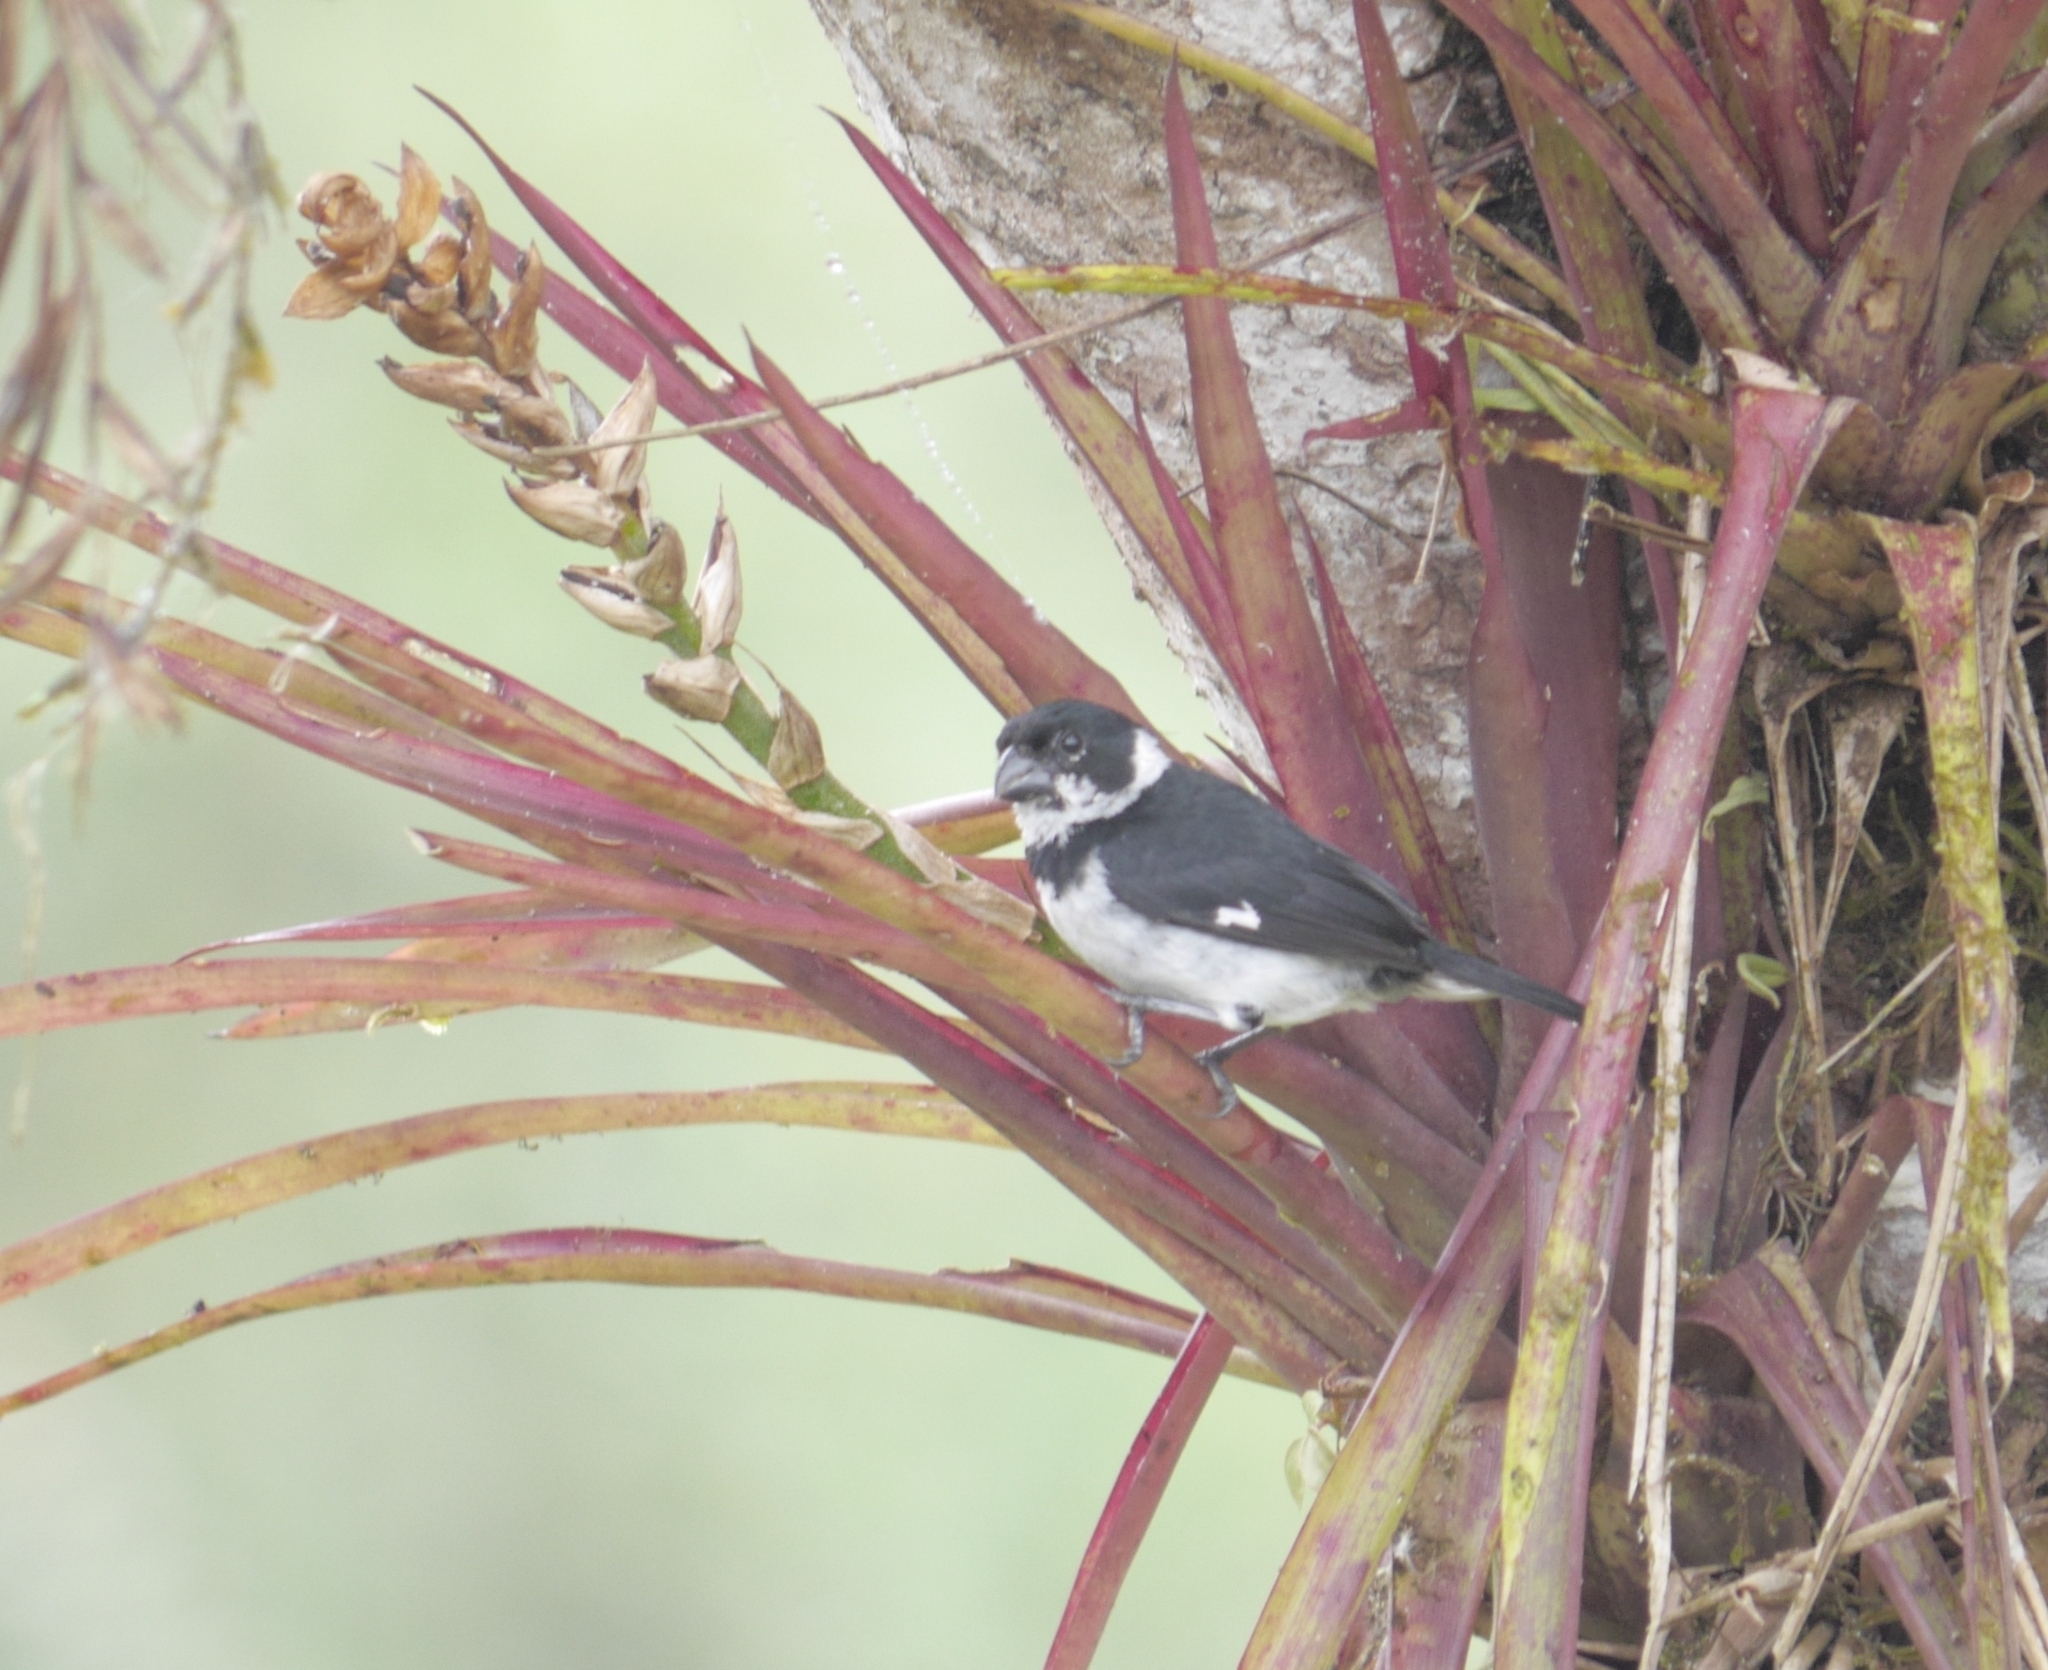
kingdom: Animalia
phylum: Chordata
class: Aves
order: Passeriformes
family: Thraupidae
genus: Sporophila
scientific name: Sporophila corvina
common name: Variable seedeater
